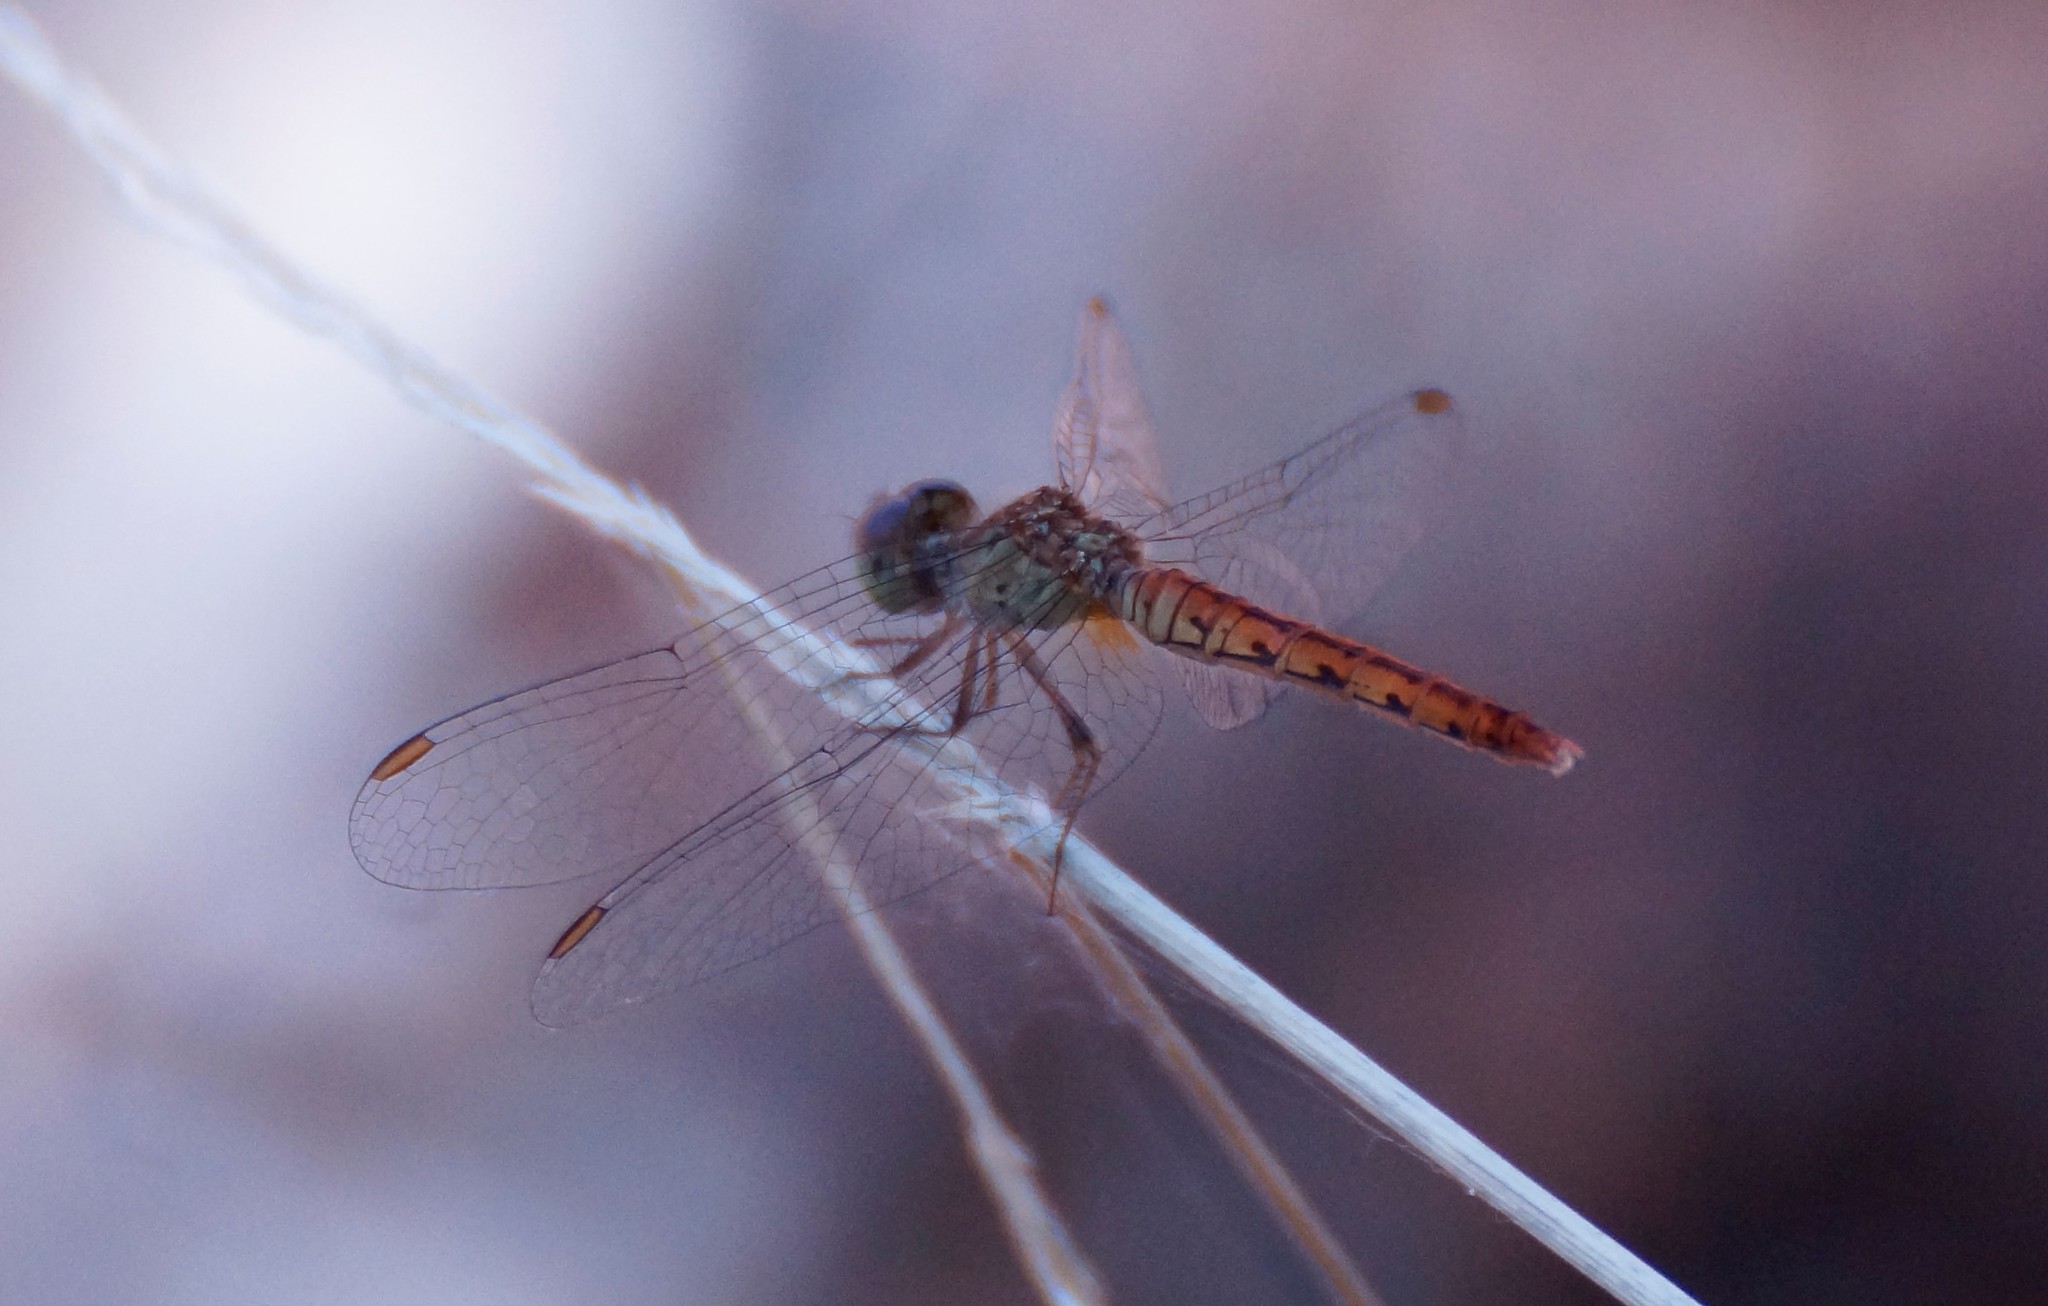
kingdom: Animalia
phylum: Arthropoda
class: Insecta
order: Odonata
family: Libellulidae
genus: Nannodiplax
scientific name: Nannodiplax rubra
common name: Pygmy percher
